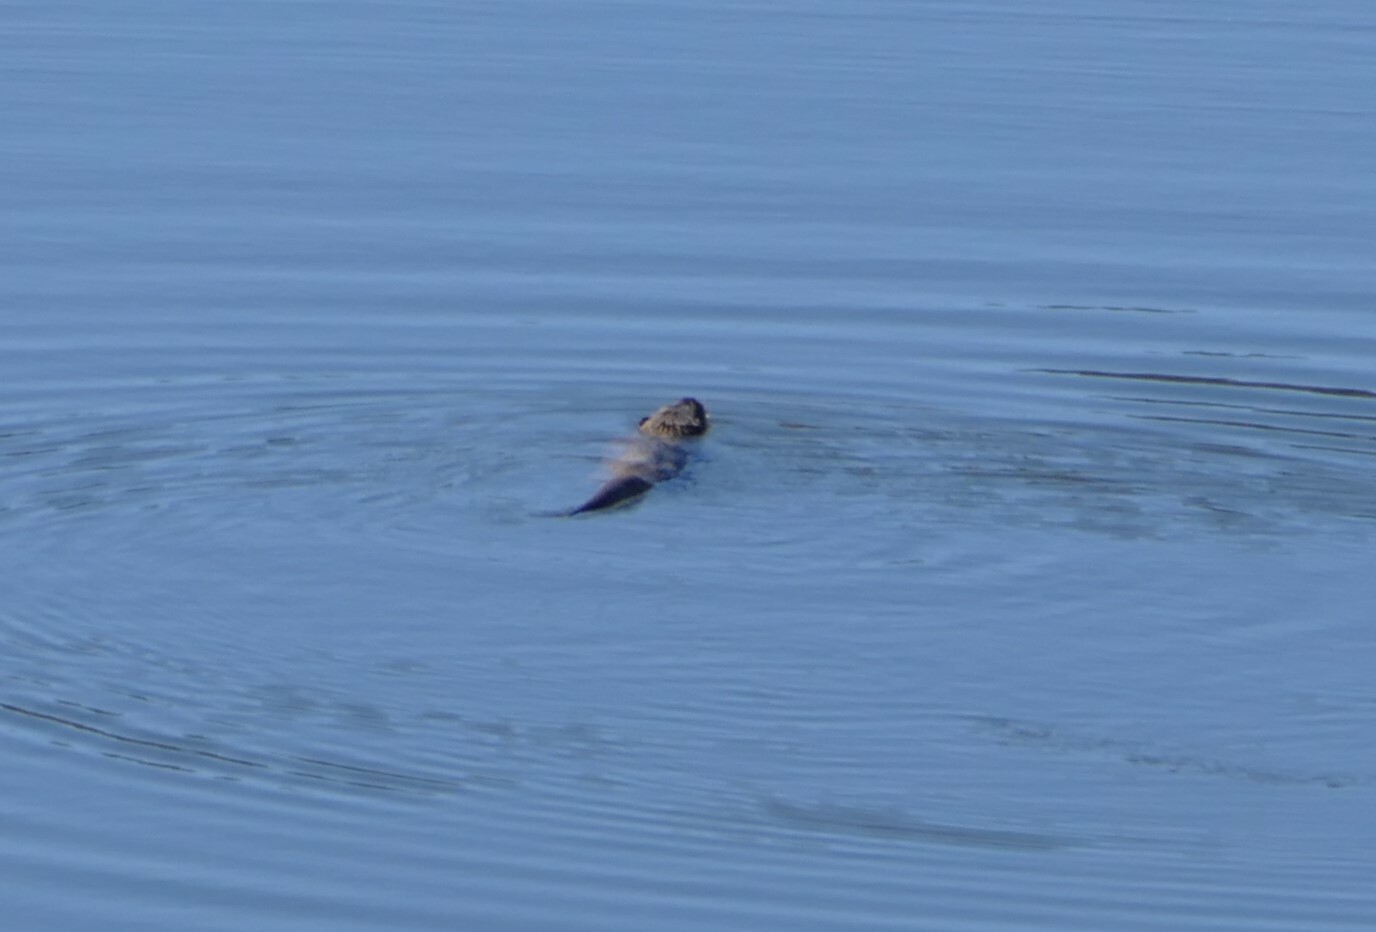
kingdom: Animalia
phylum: Chordata
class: Mammalia
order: Carnivora
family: Mustelidae
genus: Lutra
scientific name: Lutra lutra
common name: European otter
